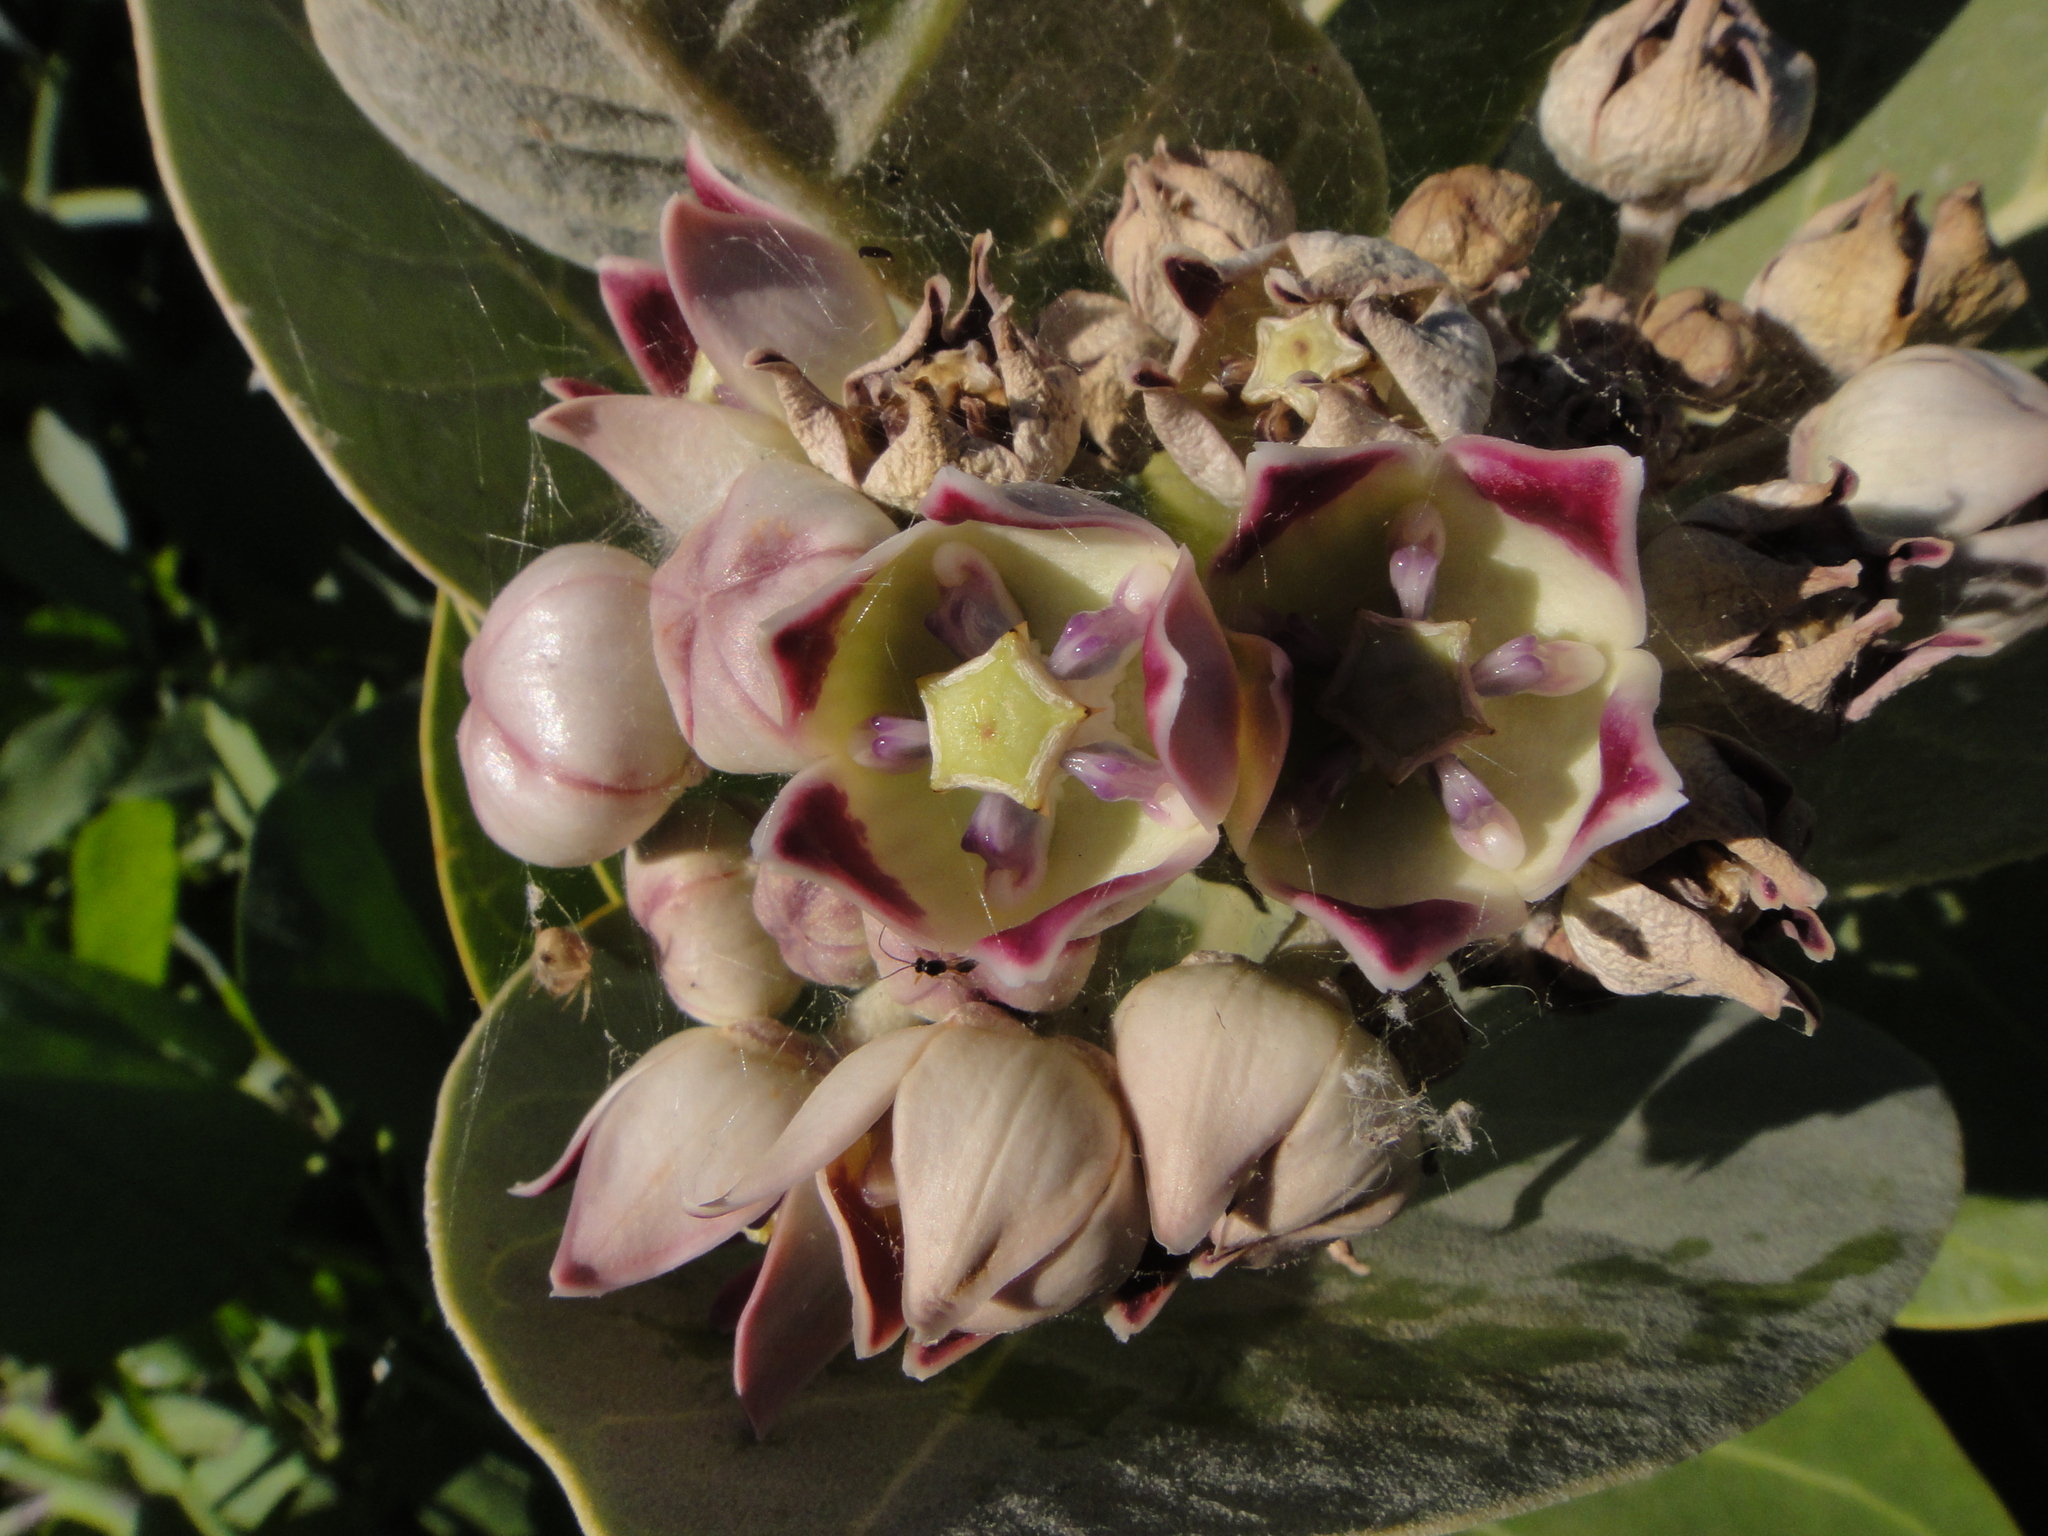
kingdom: Plantae
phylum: Tracheophyta
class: Magnoliopsida
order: Gentianales
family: Apocynaceae
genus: Calotropis
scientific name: Calotropis procera
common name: Roostertree
